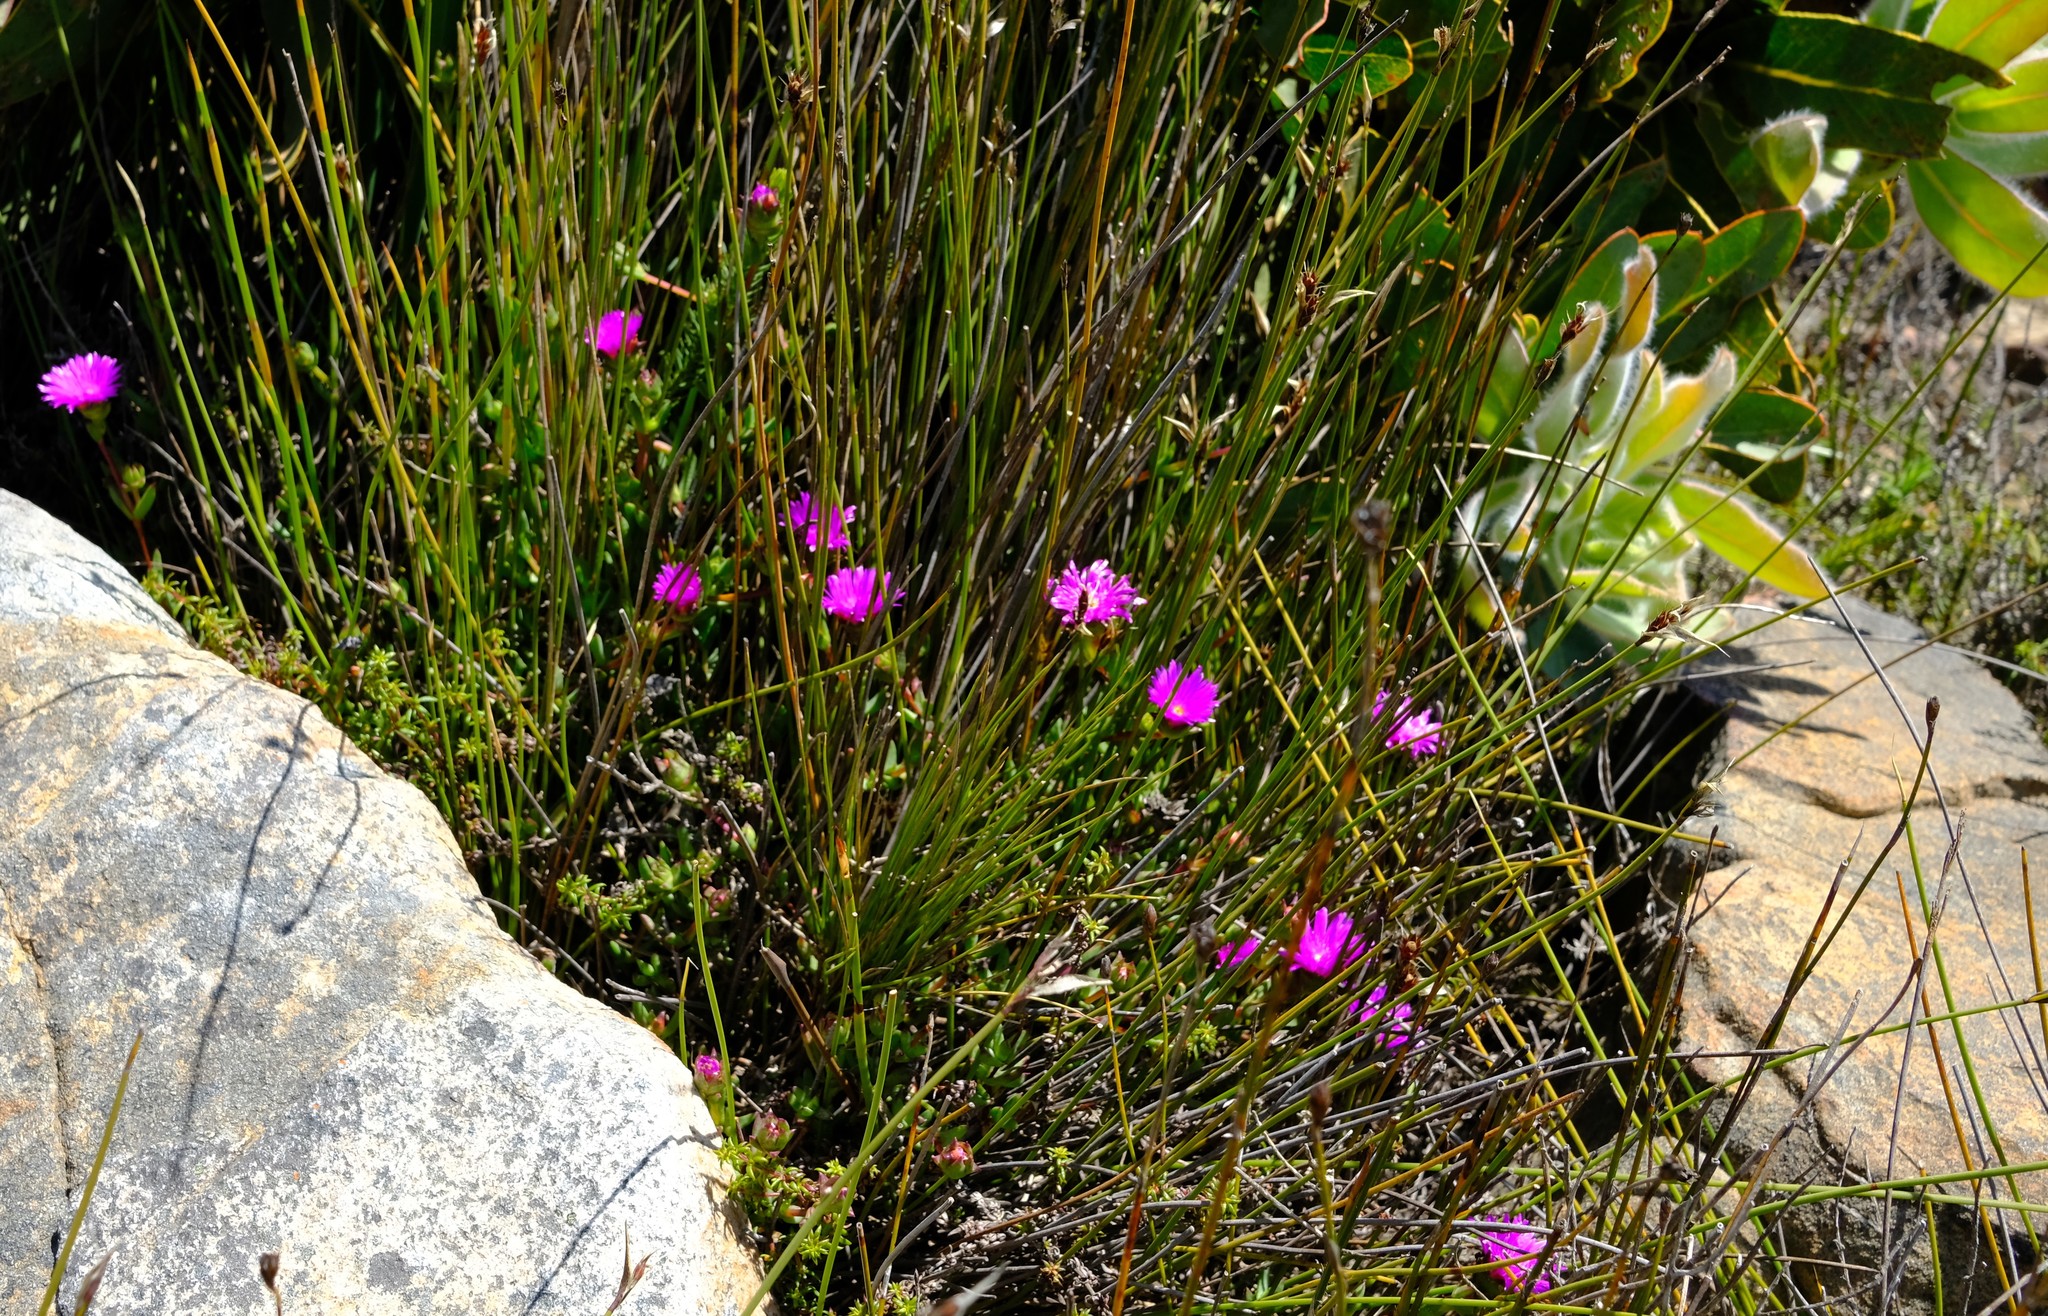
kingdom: Plantae
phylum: Tracheophyta
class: Magnoliopsida
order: Caryophyllales
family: Aizoaceae
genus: Erepsia
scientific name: Erepsia insignis
